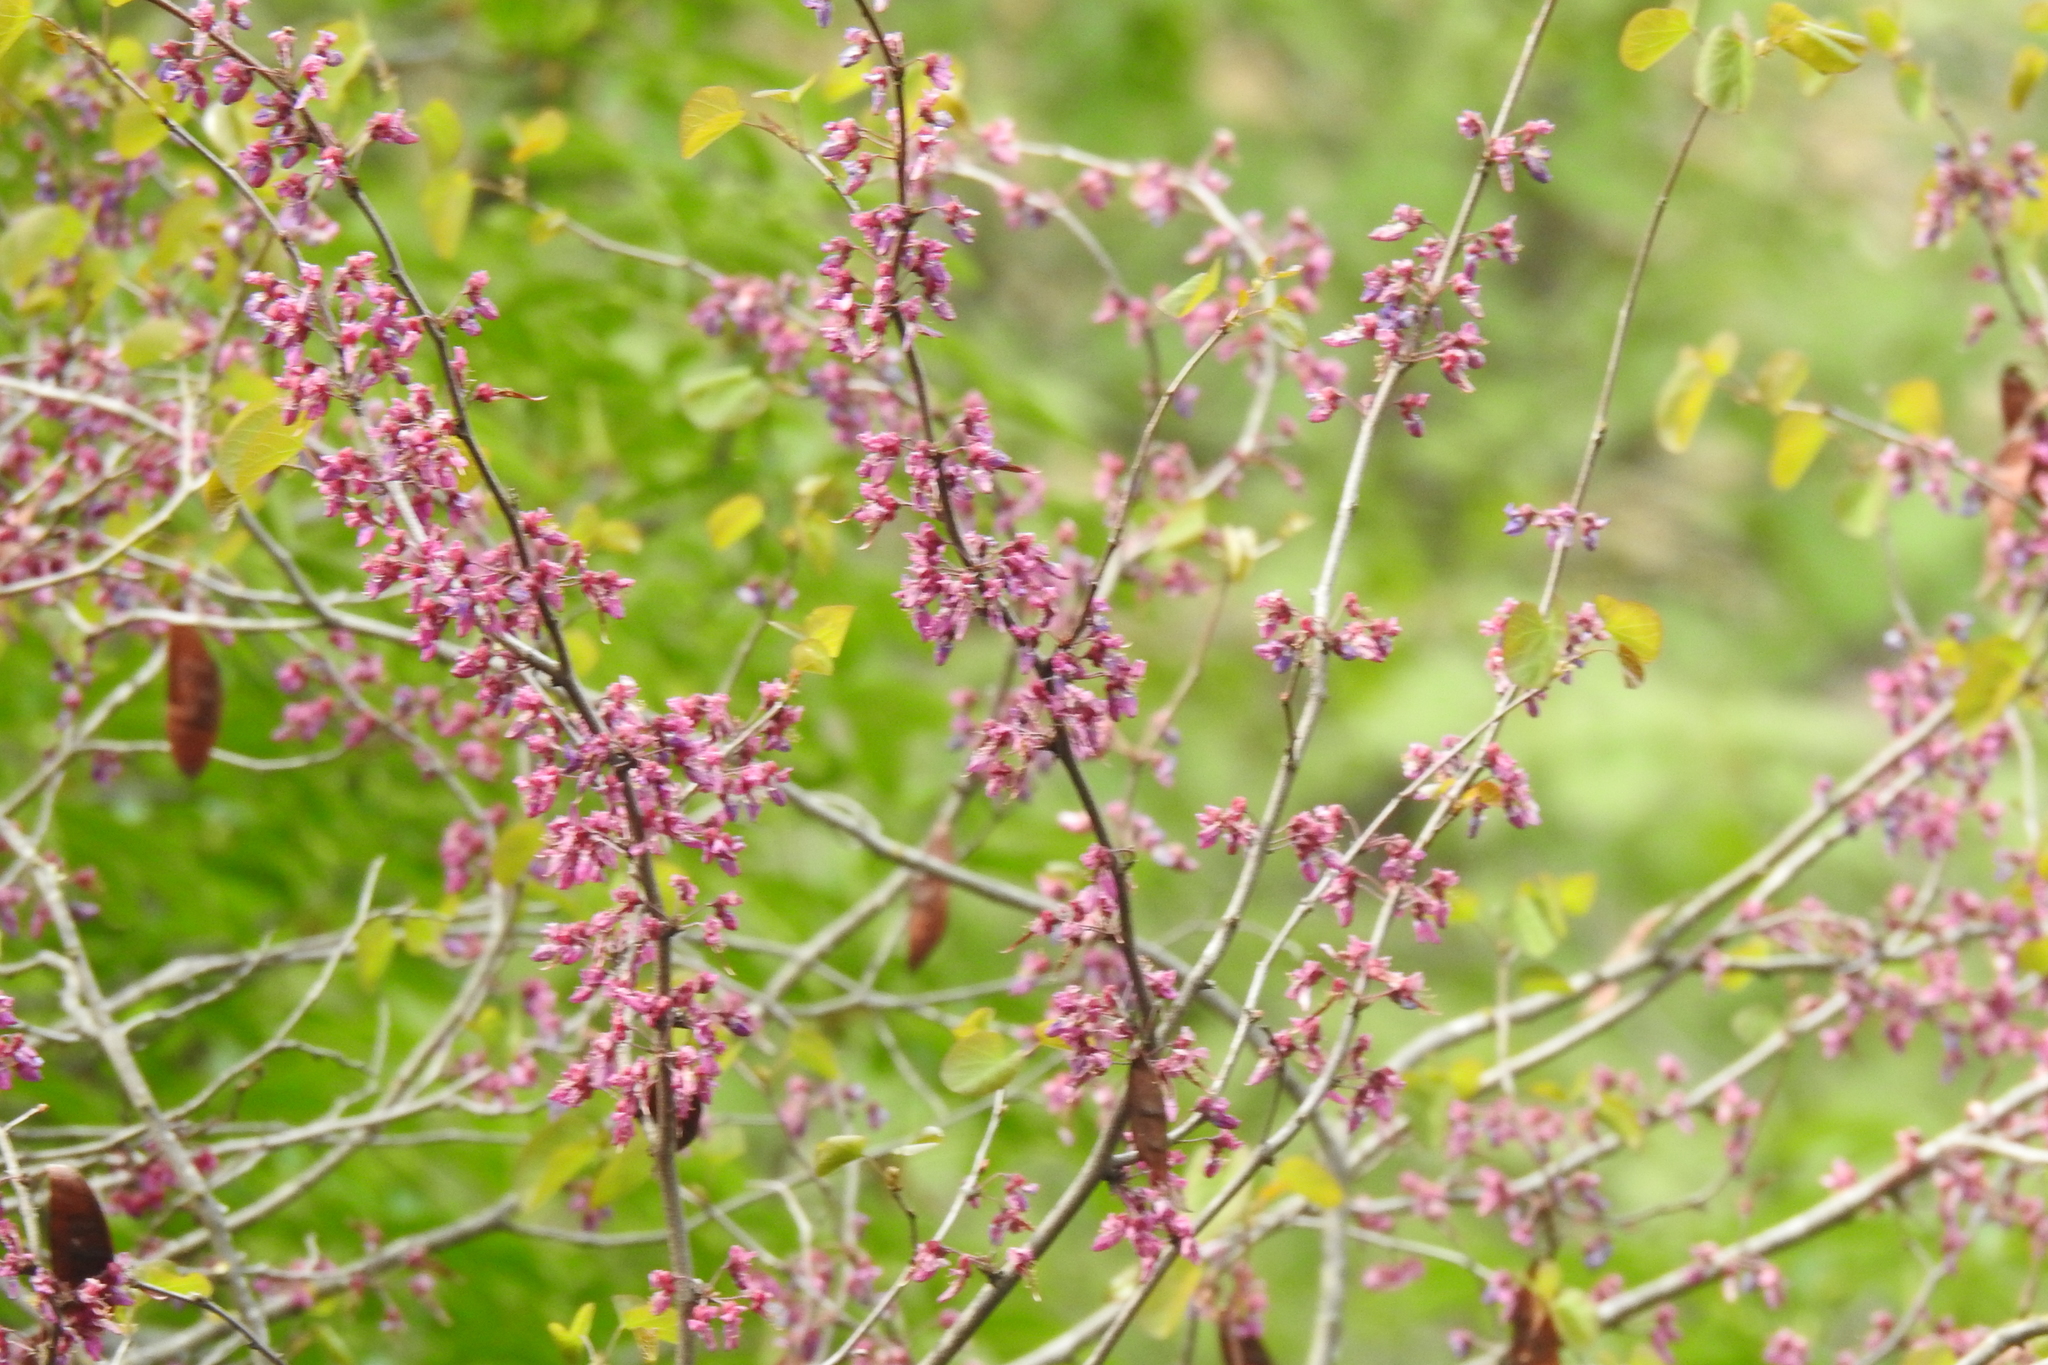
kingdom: Plantae
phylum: Tracheophyta
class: Magnoliopsida
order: Fabales
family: Fabaceae
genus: Cercis
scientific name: Cercis occidentalis
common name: California redbud
